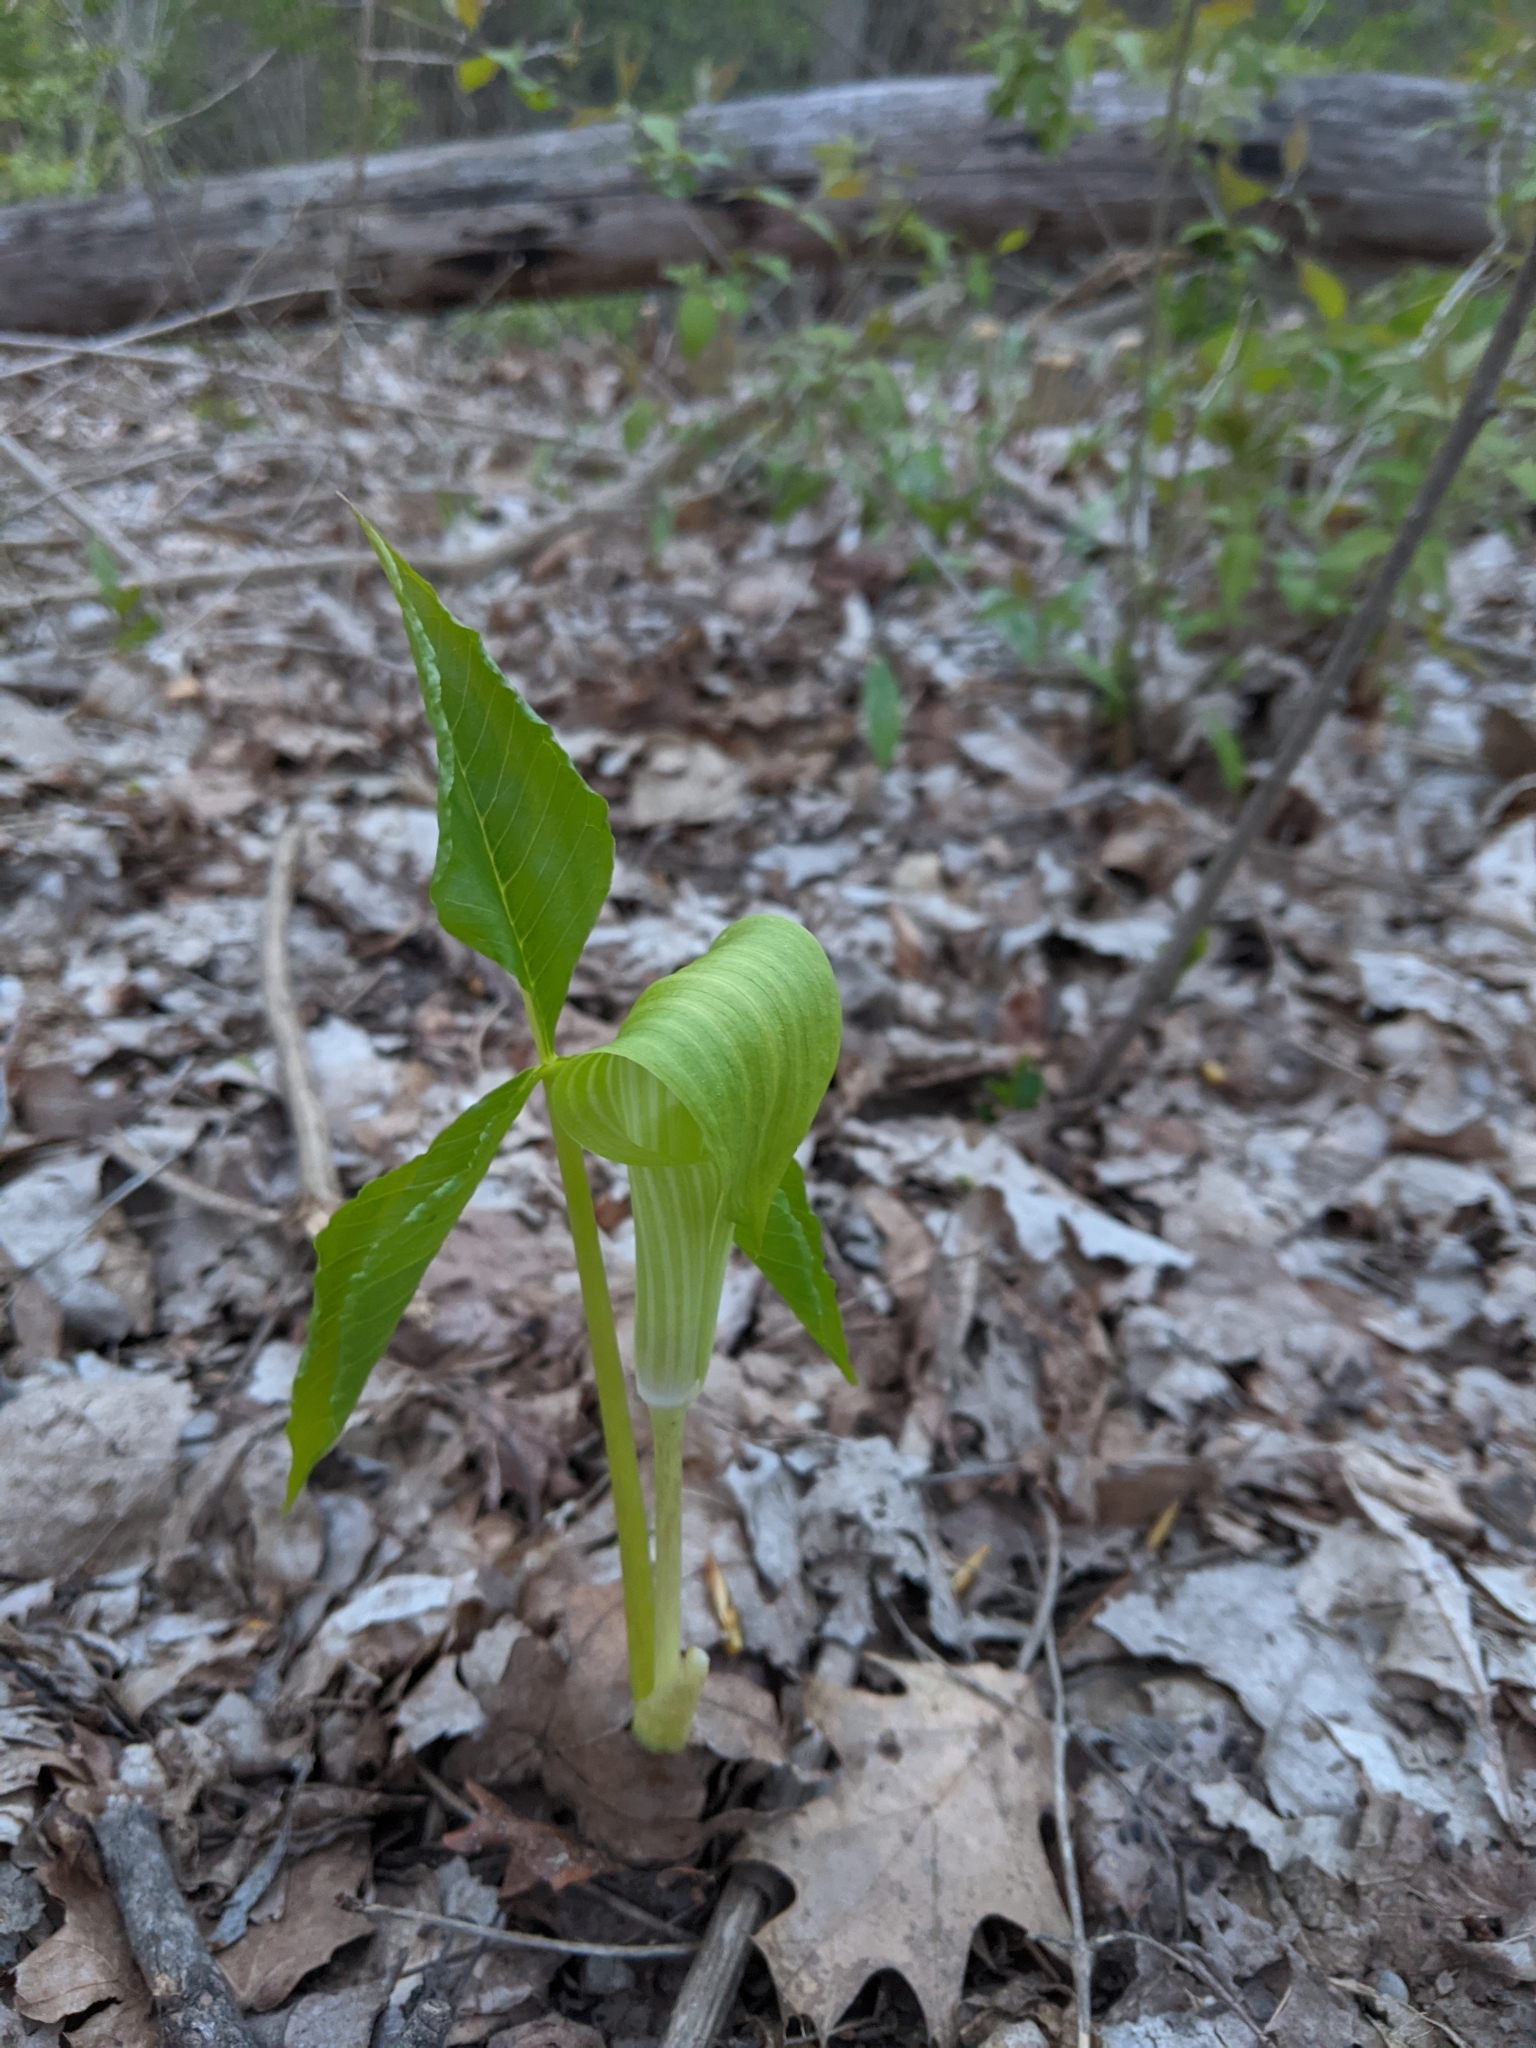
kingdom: Plantae
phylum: Tracheophyta
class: Liliopsida
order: Alismatales
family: Araceae
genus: Arisaema
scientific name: Arisaema triphyllum
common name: Jack-in-the-pulpit
